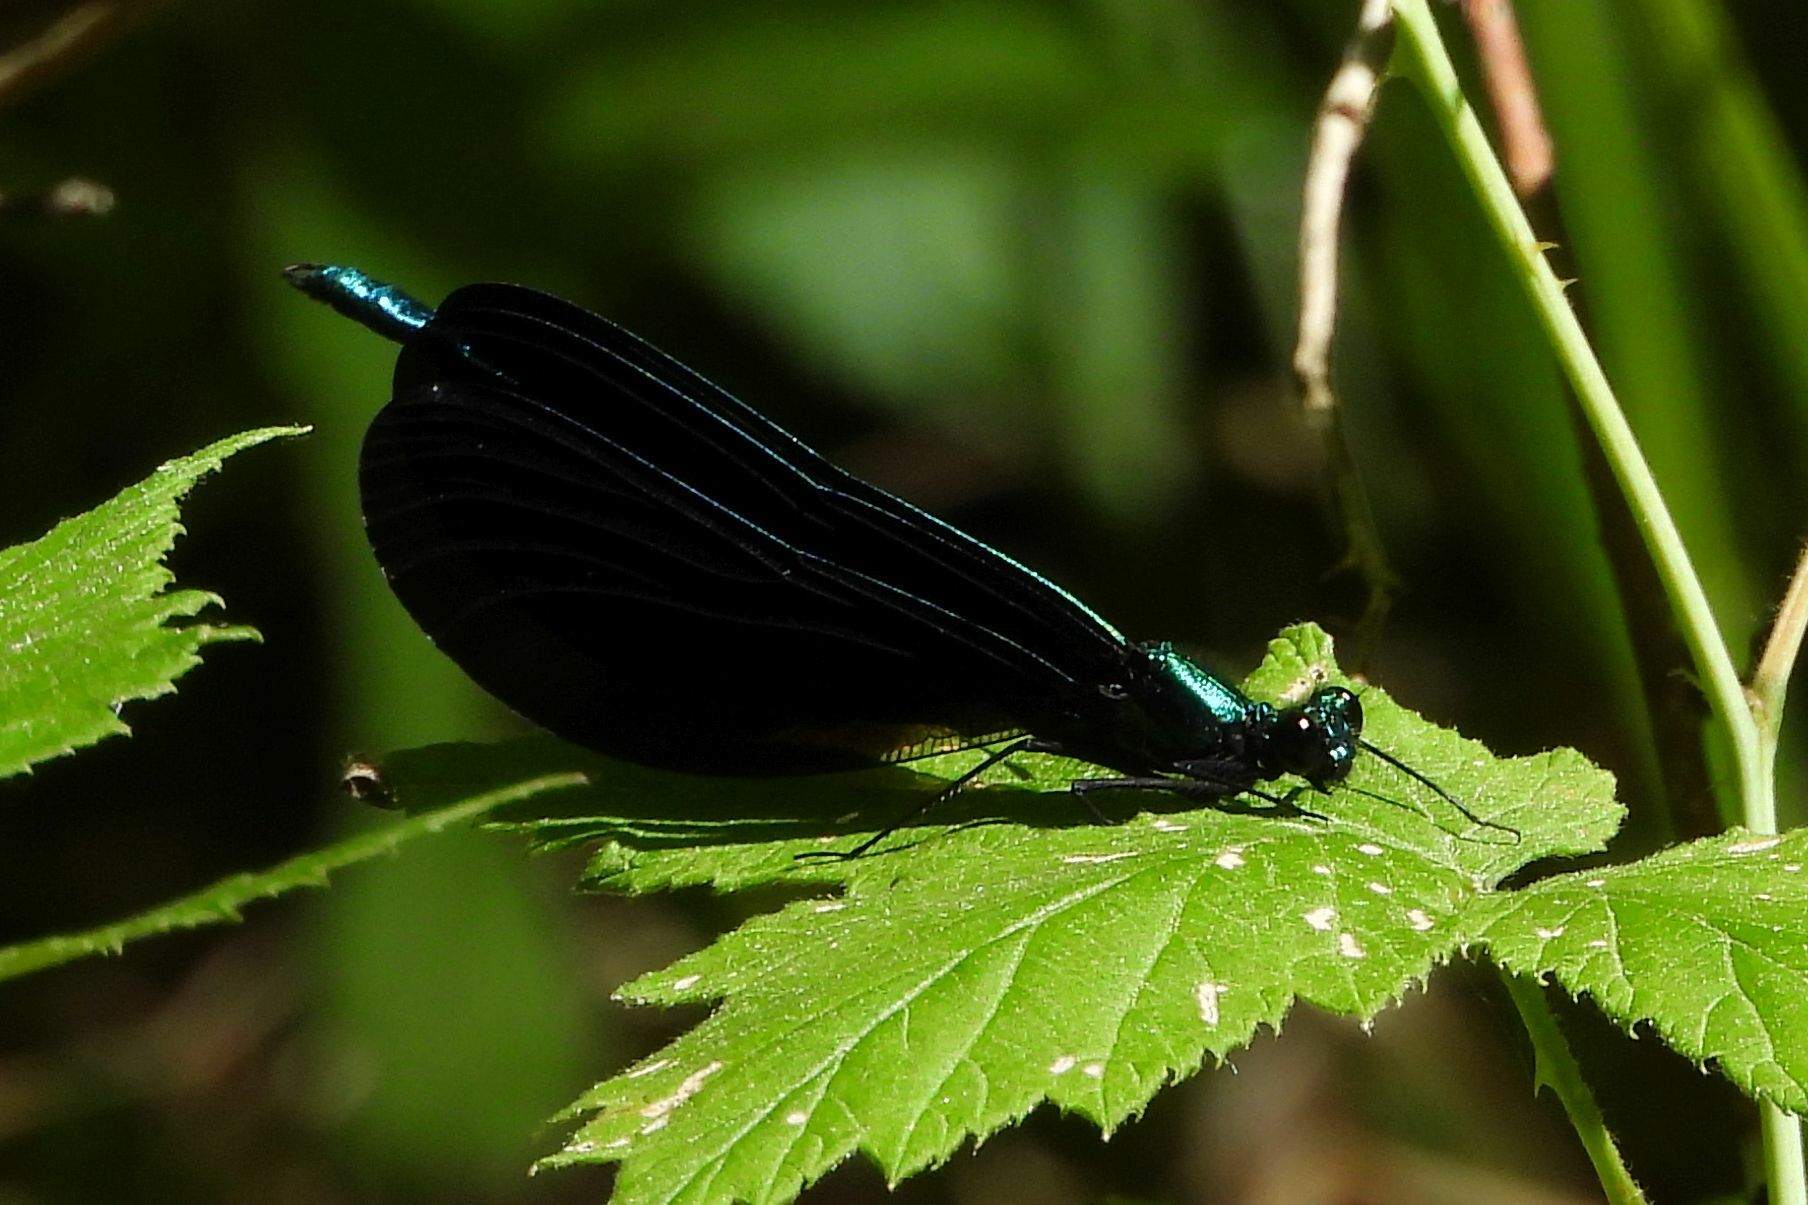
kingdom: Animalia
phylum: Arthropoda
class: Insecta
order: Odonata
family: Calopterygidae
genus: Calopteryx
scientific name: Calopteryx maculata
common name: Ebony jewelwing
